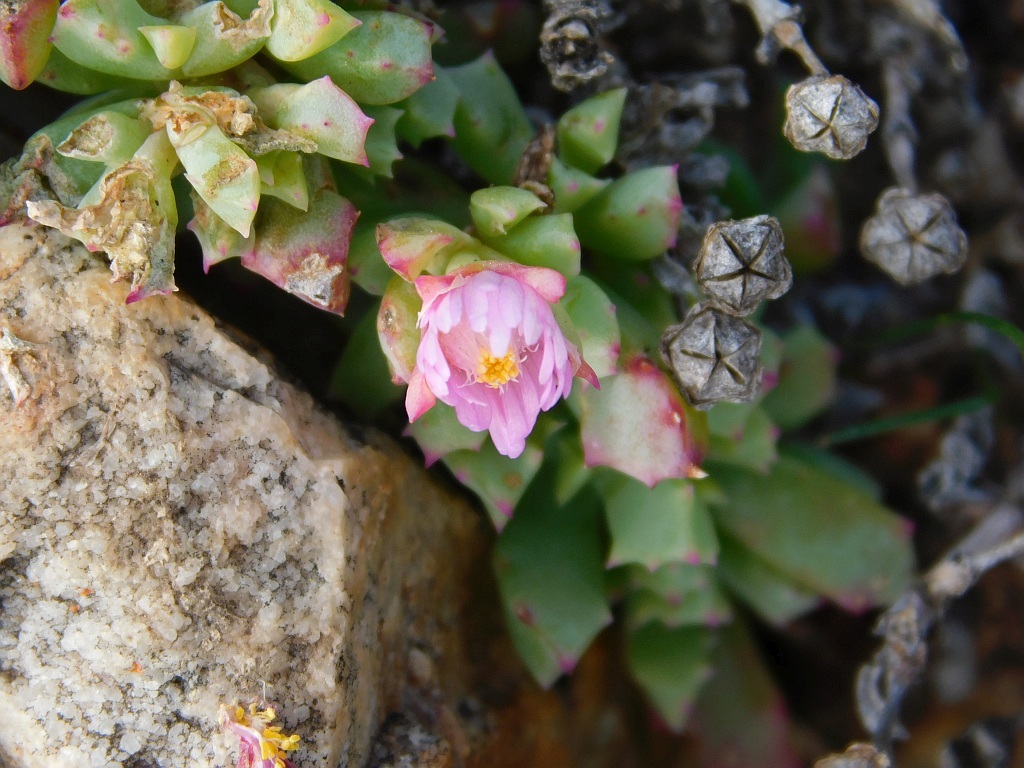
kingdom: Plantae
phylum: Tracheophyta
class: Magnoliopsida
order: Caryophyllales
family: Aizoaceae
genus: Oscularia
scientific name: Oscularia deltoides
